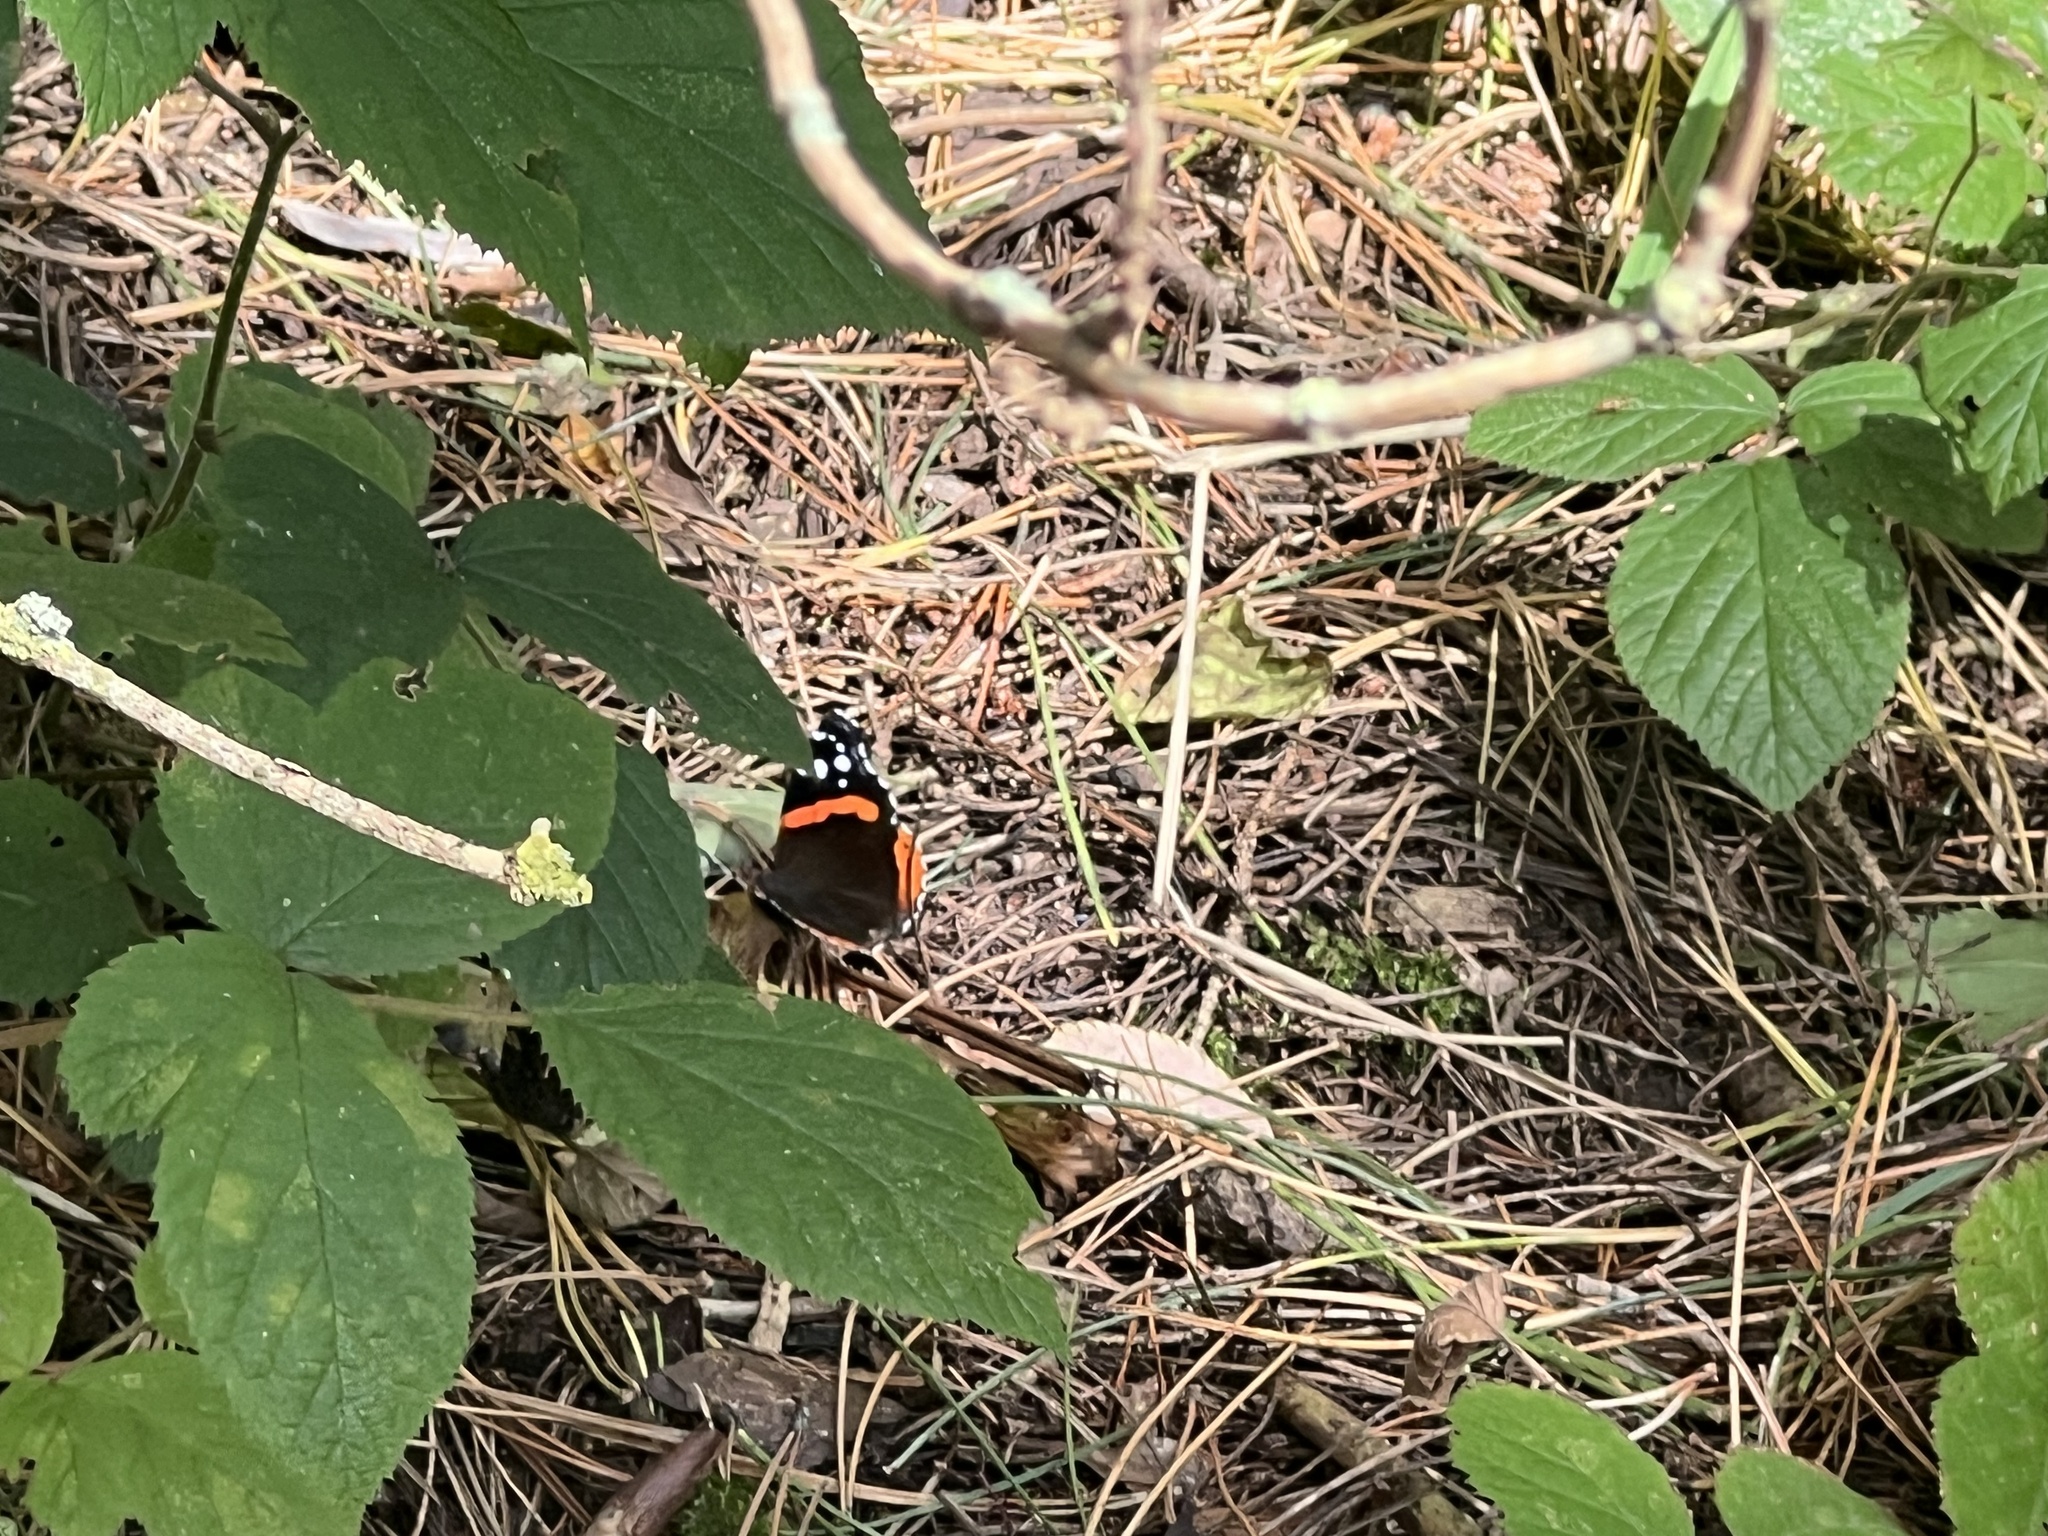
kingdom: Animalia
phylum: Arthropoda
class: Insecta
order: Lepidoptera
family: Nymphalidae
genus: Vanessa
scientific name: Vanessa atalanta
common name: Red admiral
